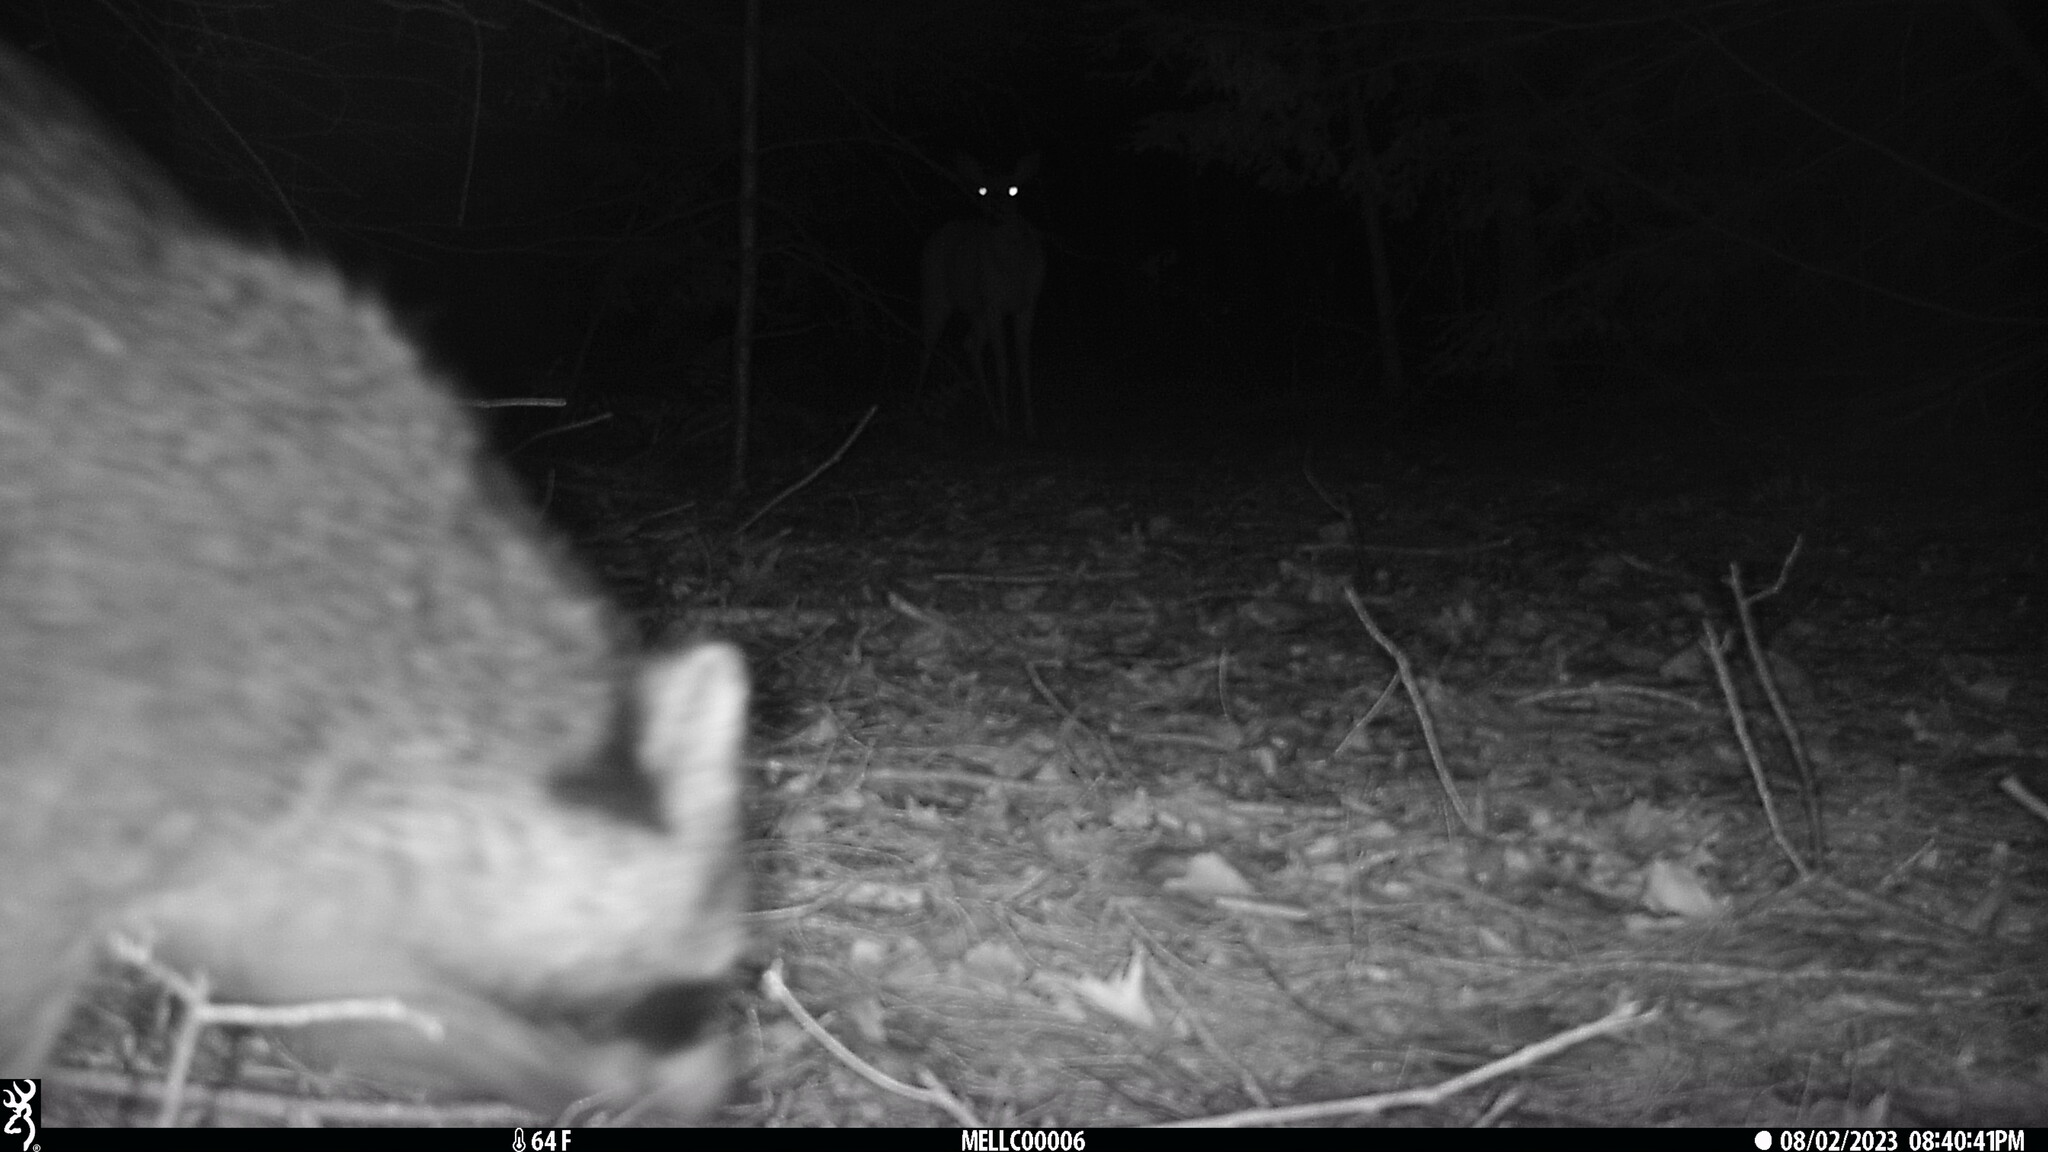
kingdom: Animalia
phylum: Chordata
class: Mammalia
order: Carnivora
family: Procyonidae
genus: Procyon
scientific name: Procyon lotor
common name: Raccoon
